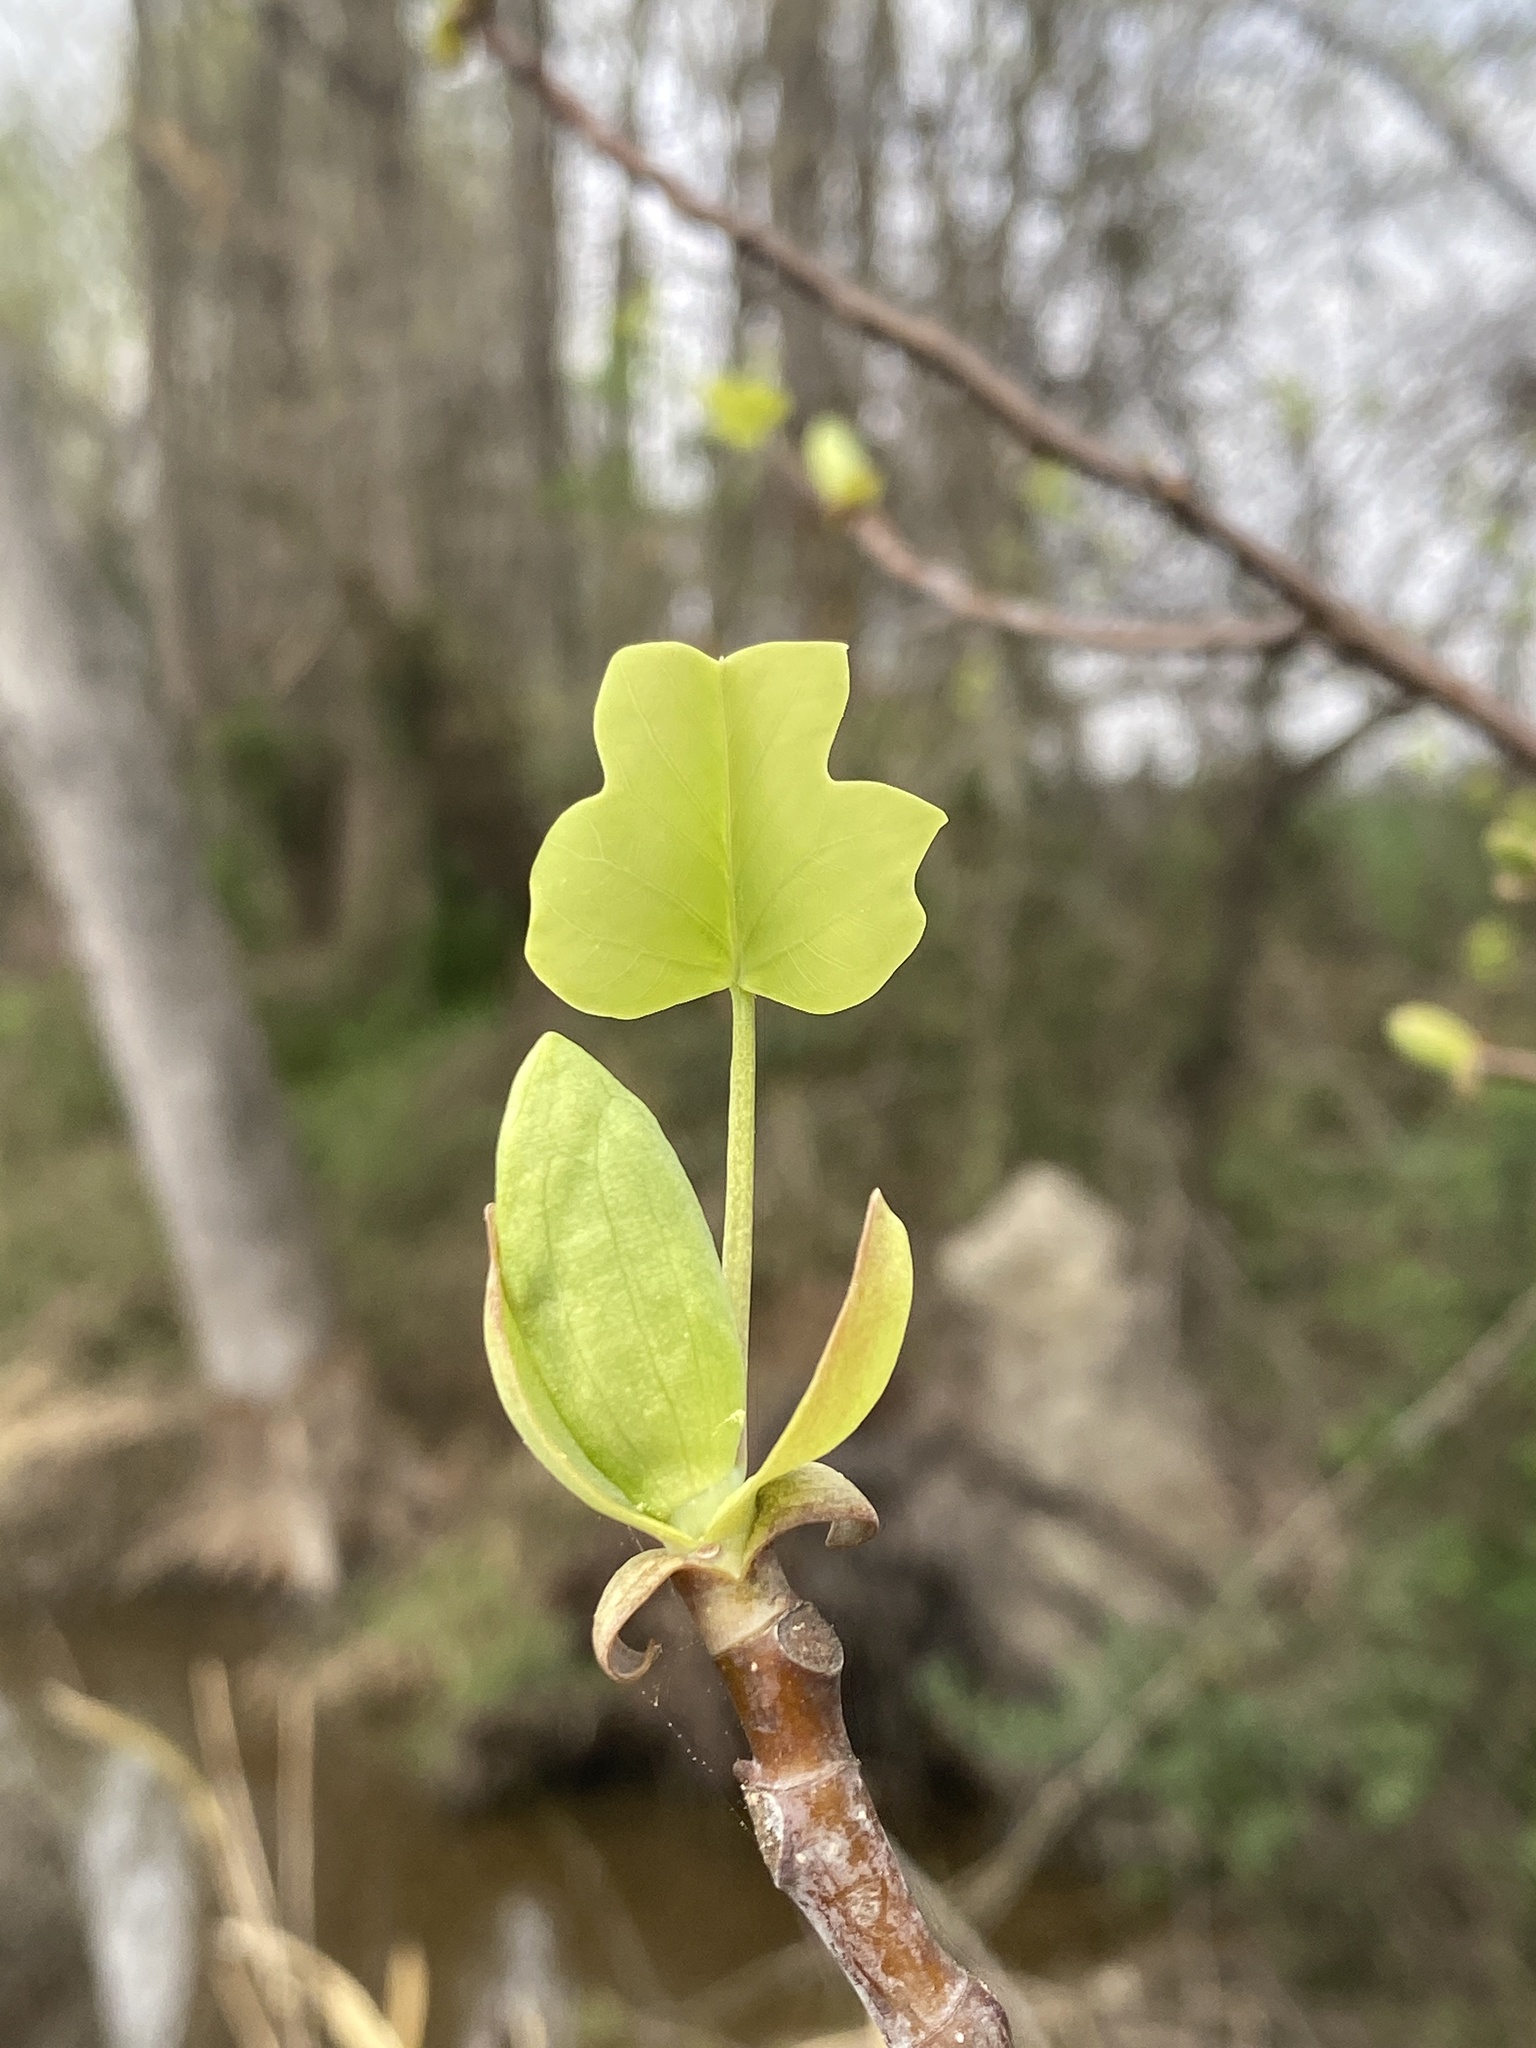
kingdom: Plantae
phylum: Tracheophyta
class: Magnoliopsida
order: Magnoliales
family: Magnoliaceae
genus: Liriodendron
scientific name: Liriodendron tulipifera
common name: Tulip tree
